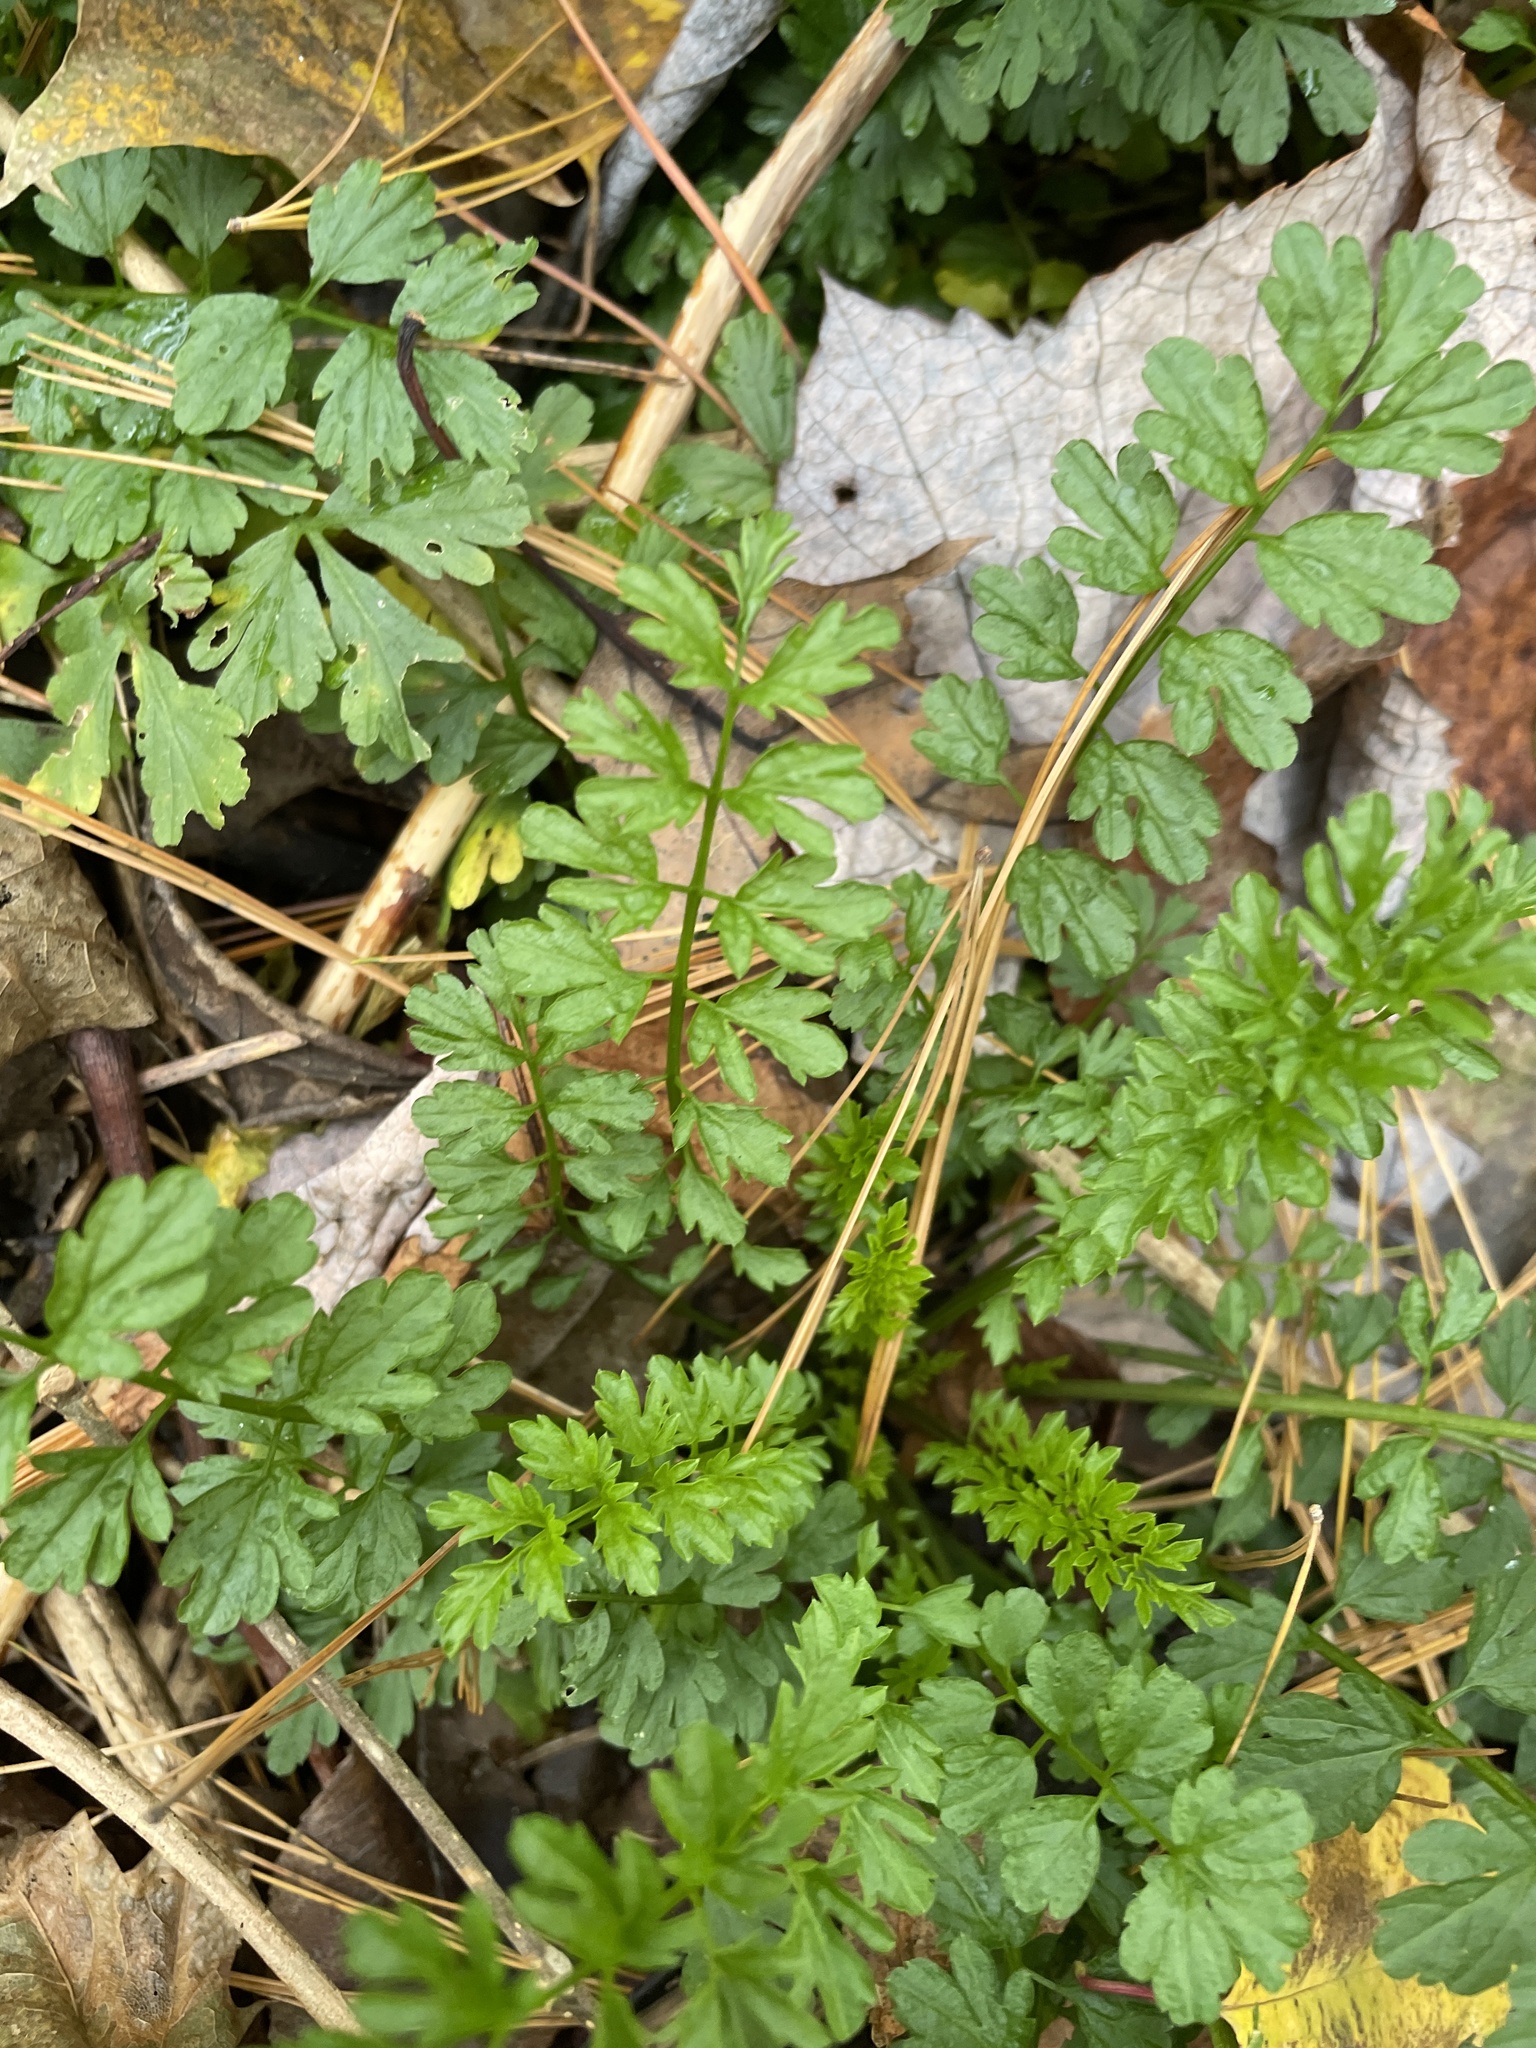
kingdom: Plantae
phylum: Tracheophyta
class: Magnoliopsida
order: Brassicales
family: Brassicaceae
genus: Cardamine
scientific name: Cardamine impatiens
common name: Narrow-leaved bitter-cress
